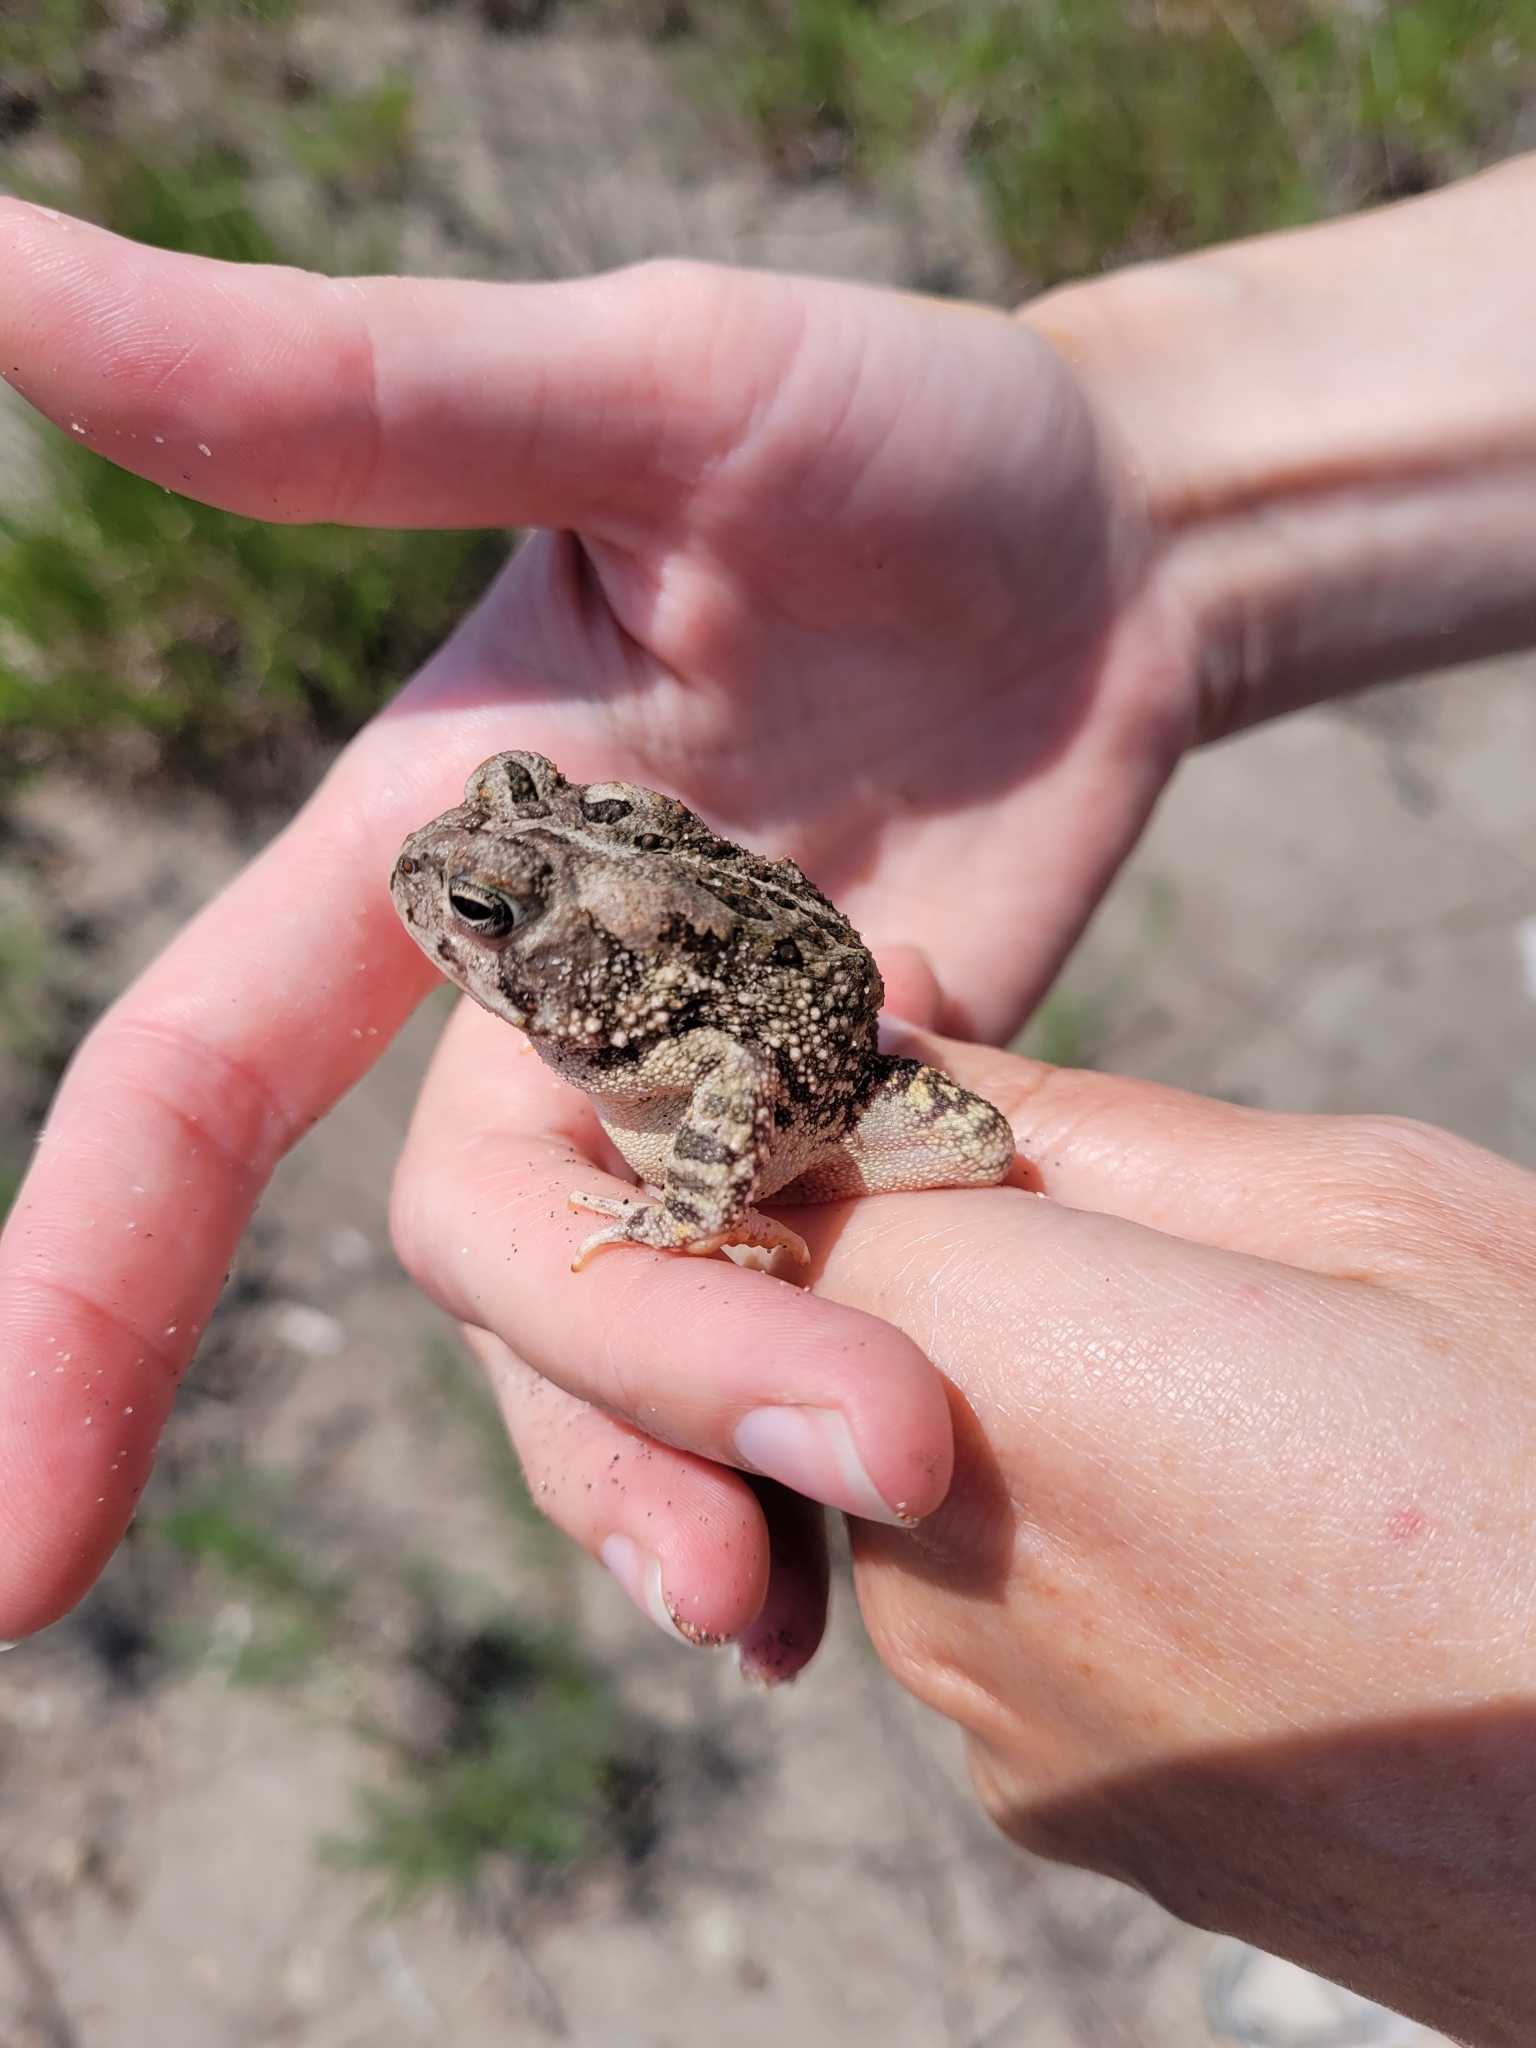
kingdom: Animalia
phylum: Chordata
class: Amphibia
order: Anura
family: Bufonidae
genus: Anaxyrus
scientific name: Anaxyrus fowleri
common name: Fowler's toad
